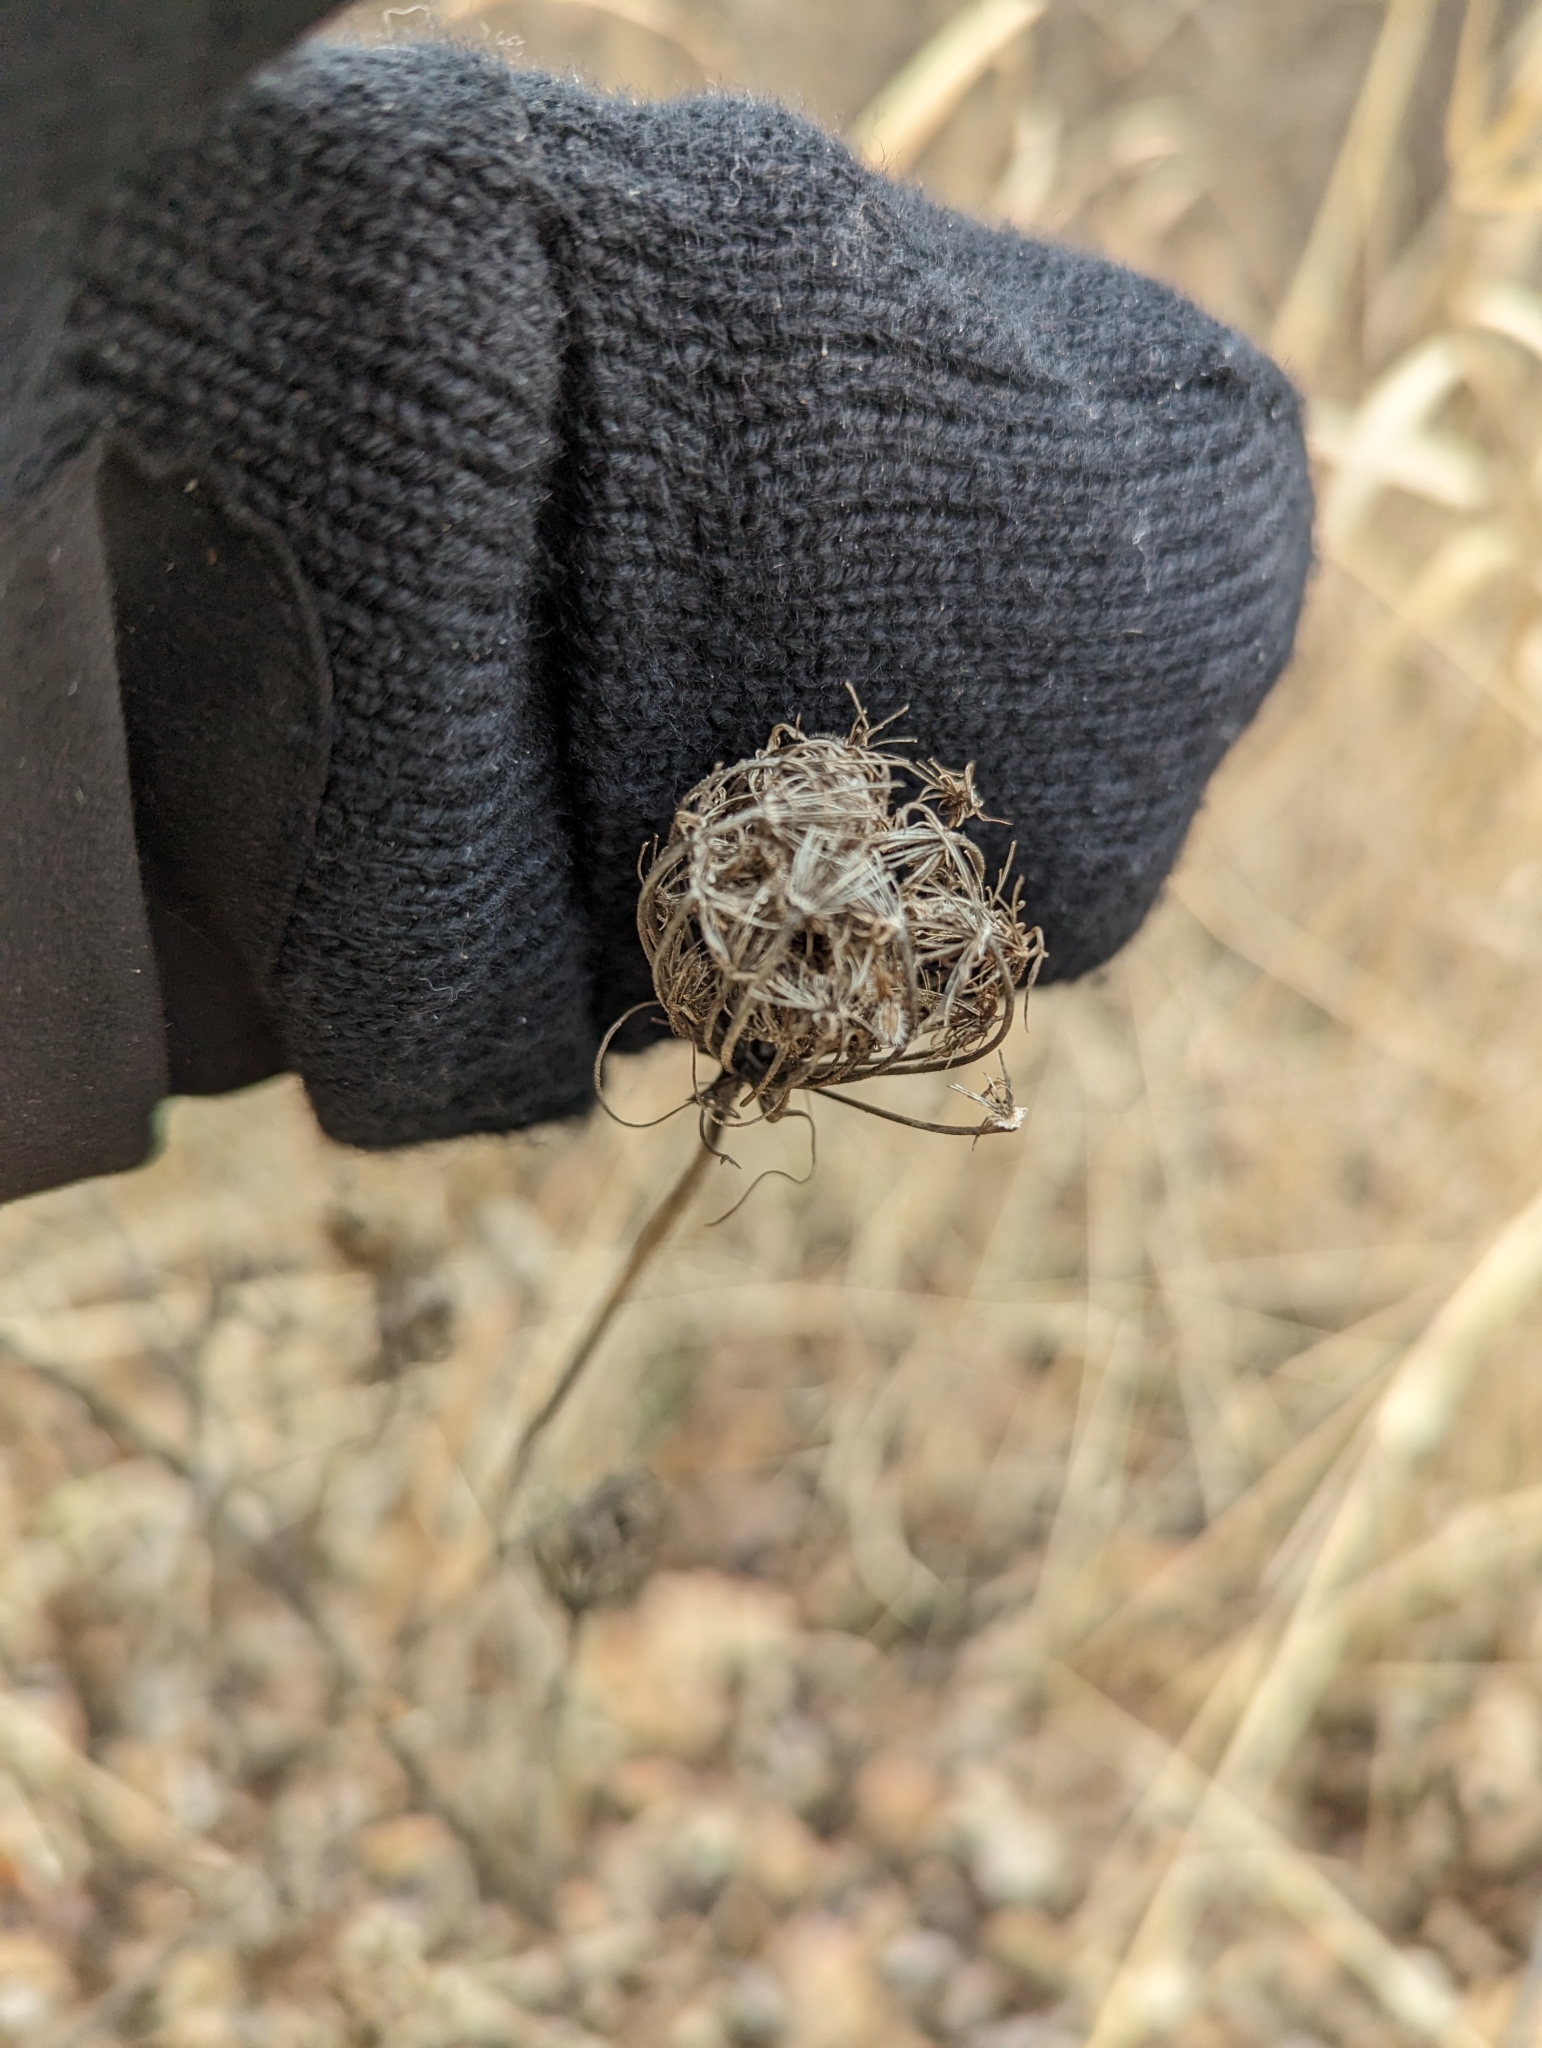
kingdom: Plantae
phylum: Tracheophyta
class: Magnoliopsida
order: Apiales
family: Apiaceae
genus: Daucus
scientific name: Daucus carota
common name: Wild carrot
